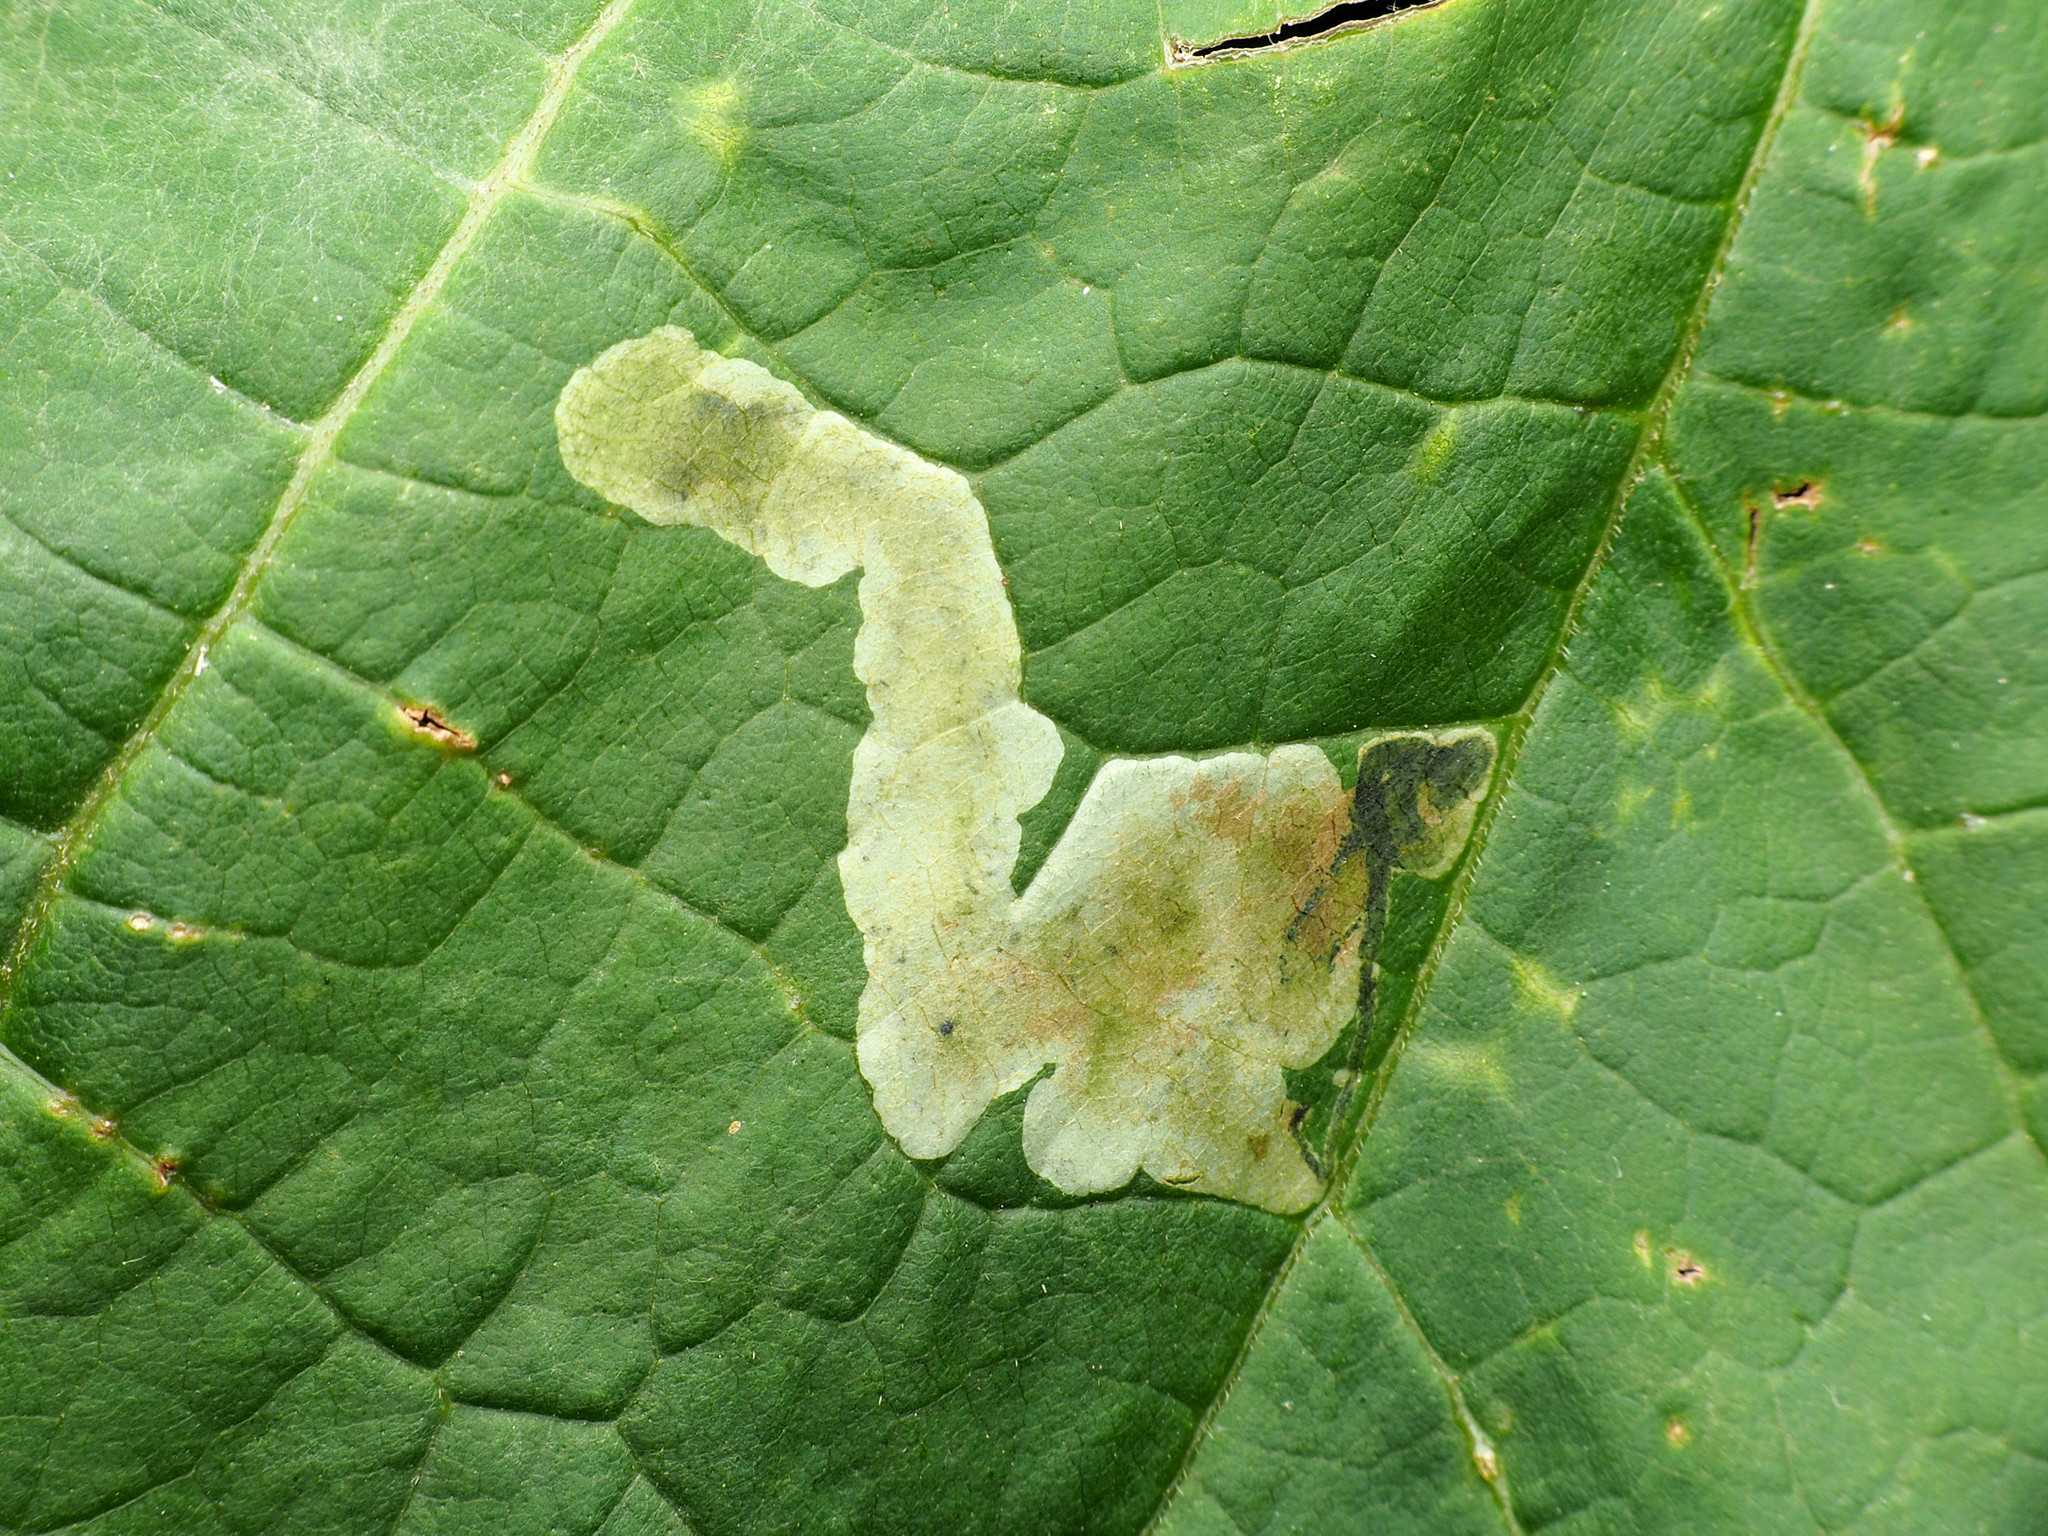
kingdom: Animalia
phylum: Arthropoda
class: Insecta
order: Diptera
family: Agromyzidae
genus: Amauromyza
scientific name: Amauromyza pleuralis
